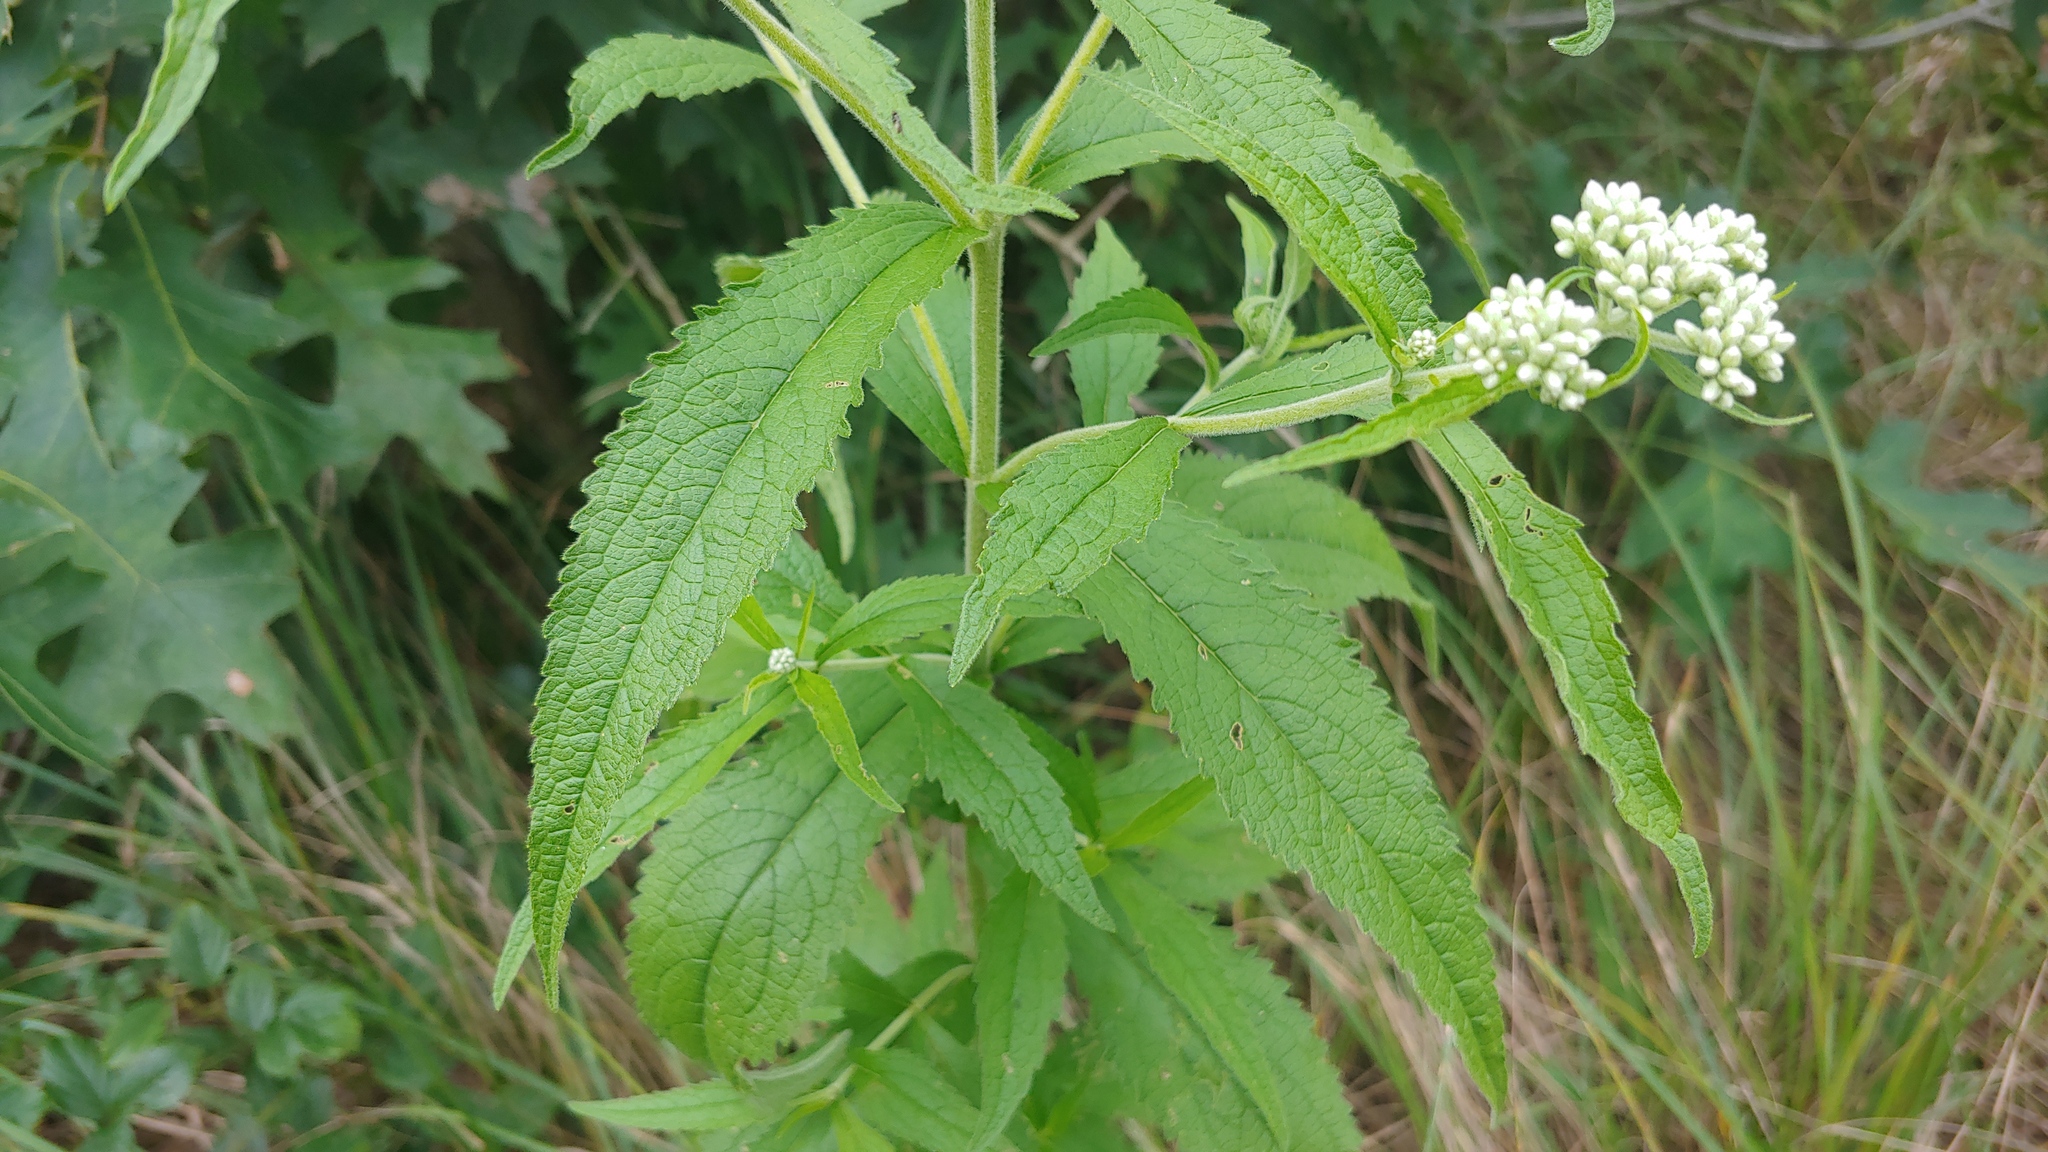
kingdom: Plantae
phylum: Tracheophyta
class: Magnoliopsida
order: Asterales
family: Asteraceae
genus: Eupatorium
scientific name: Eupatorium truncatum
